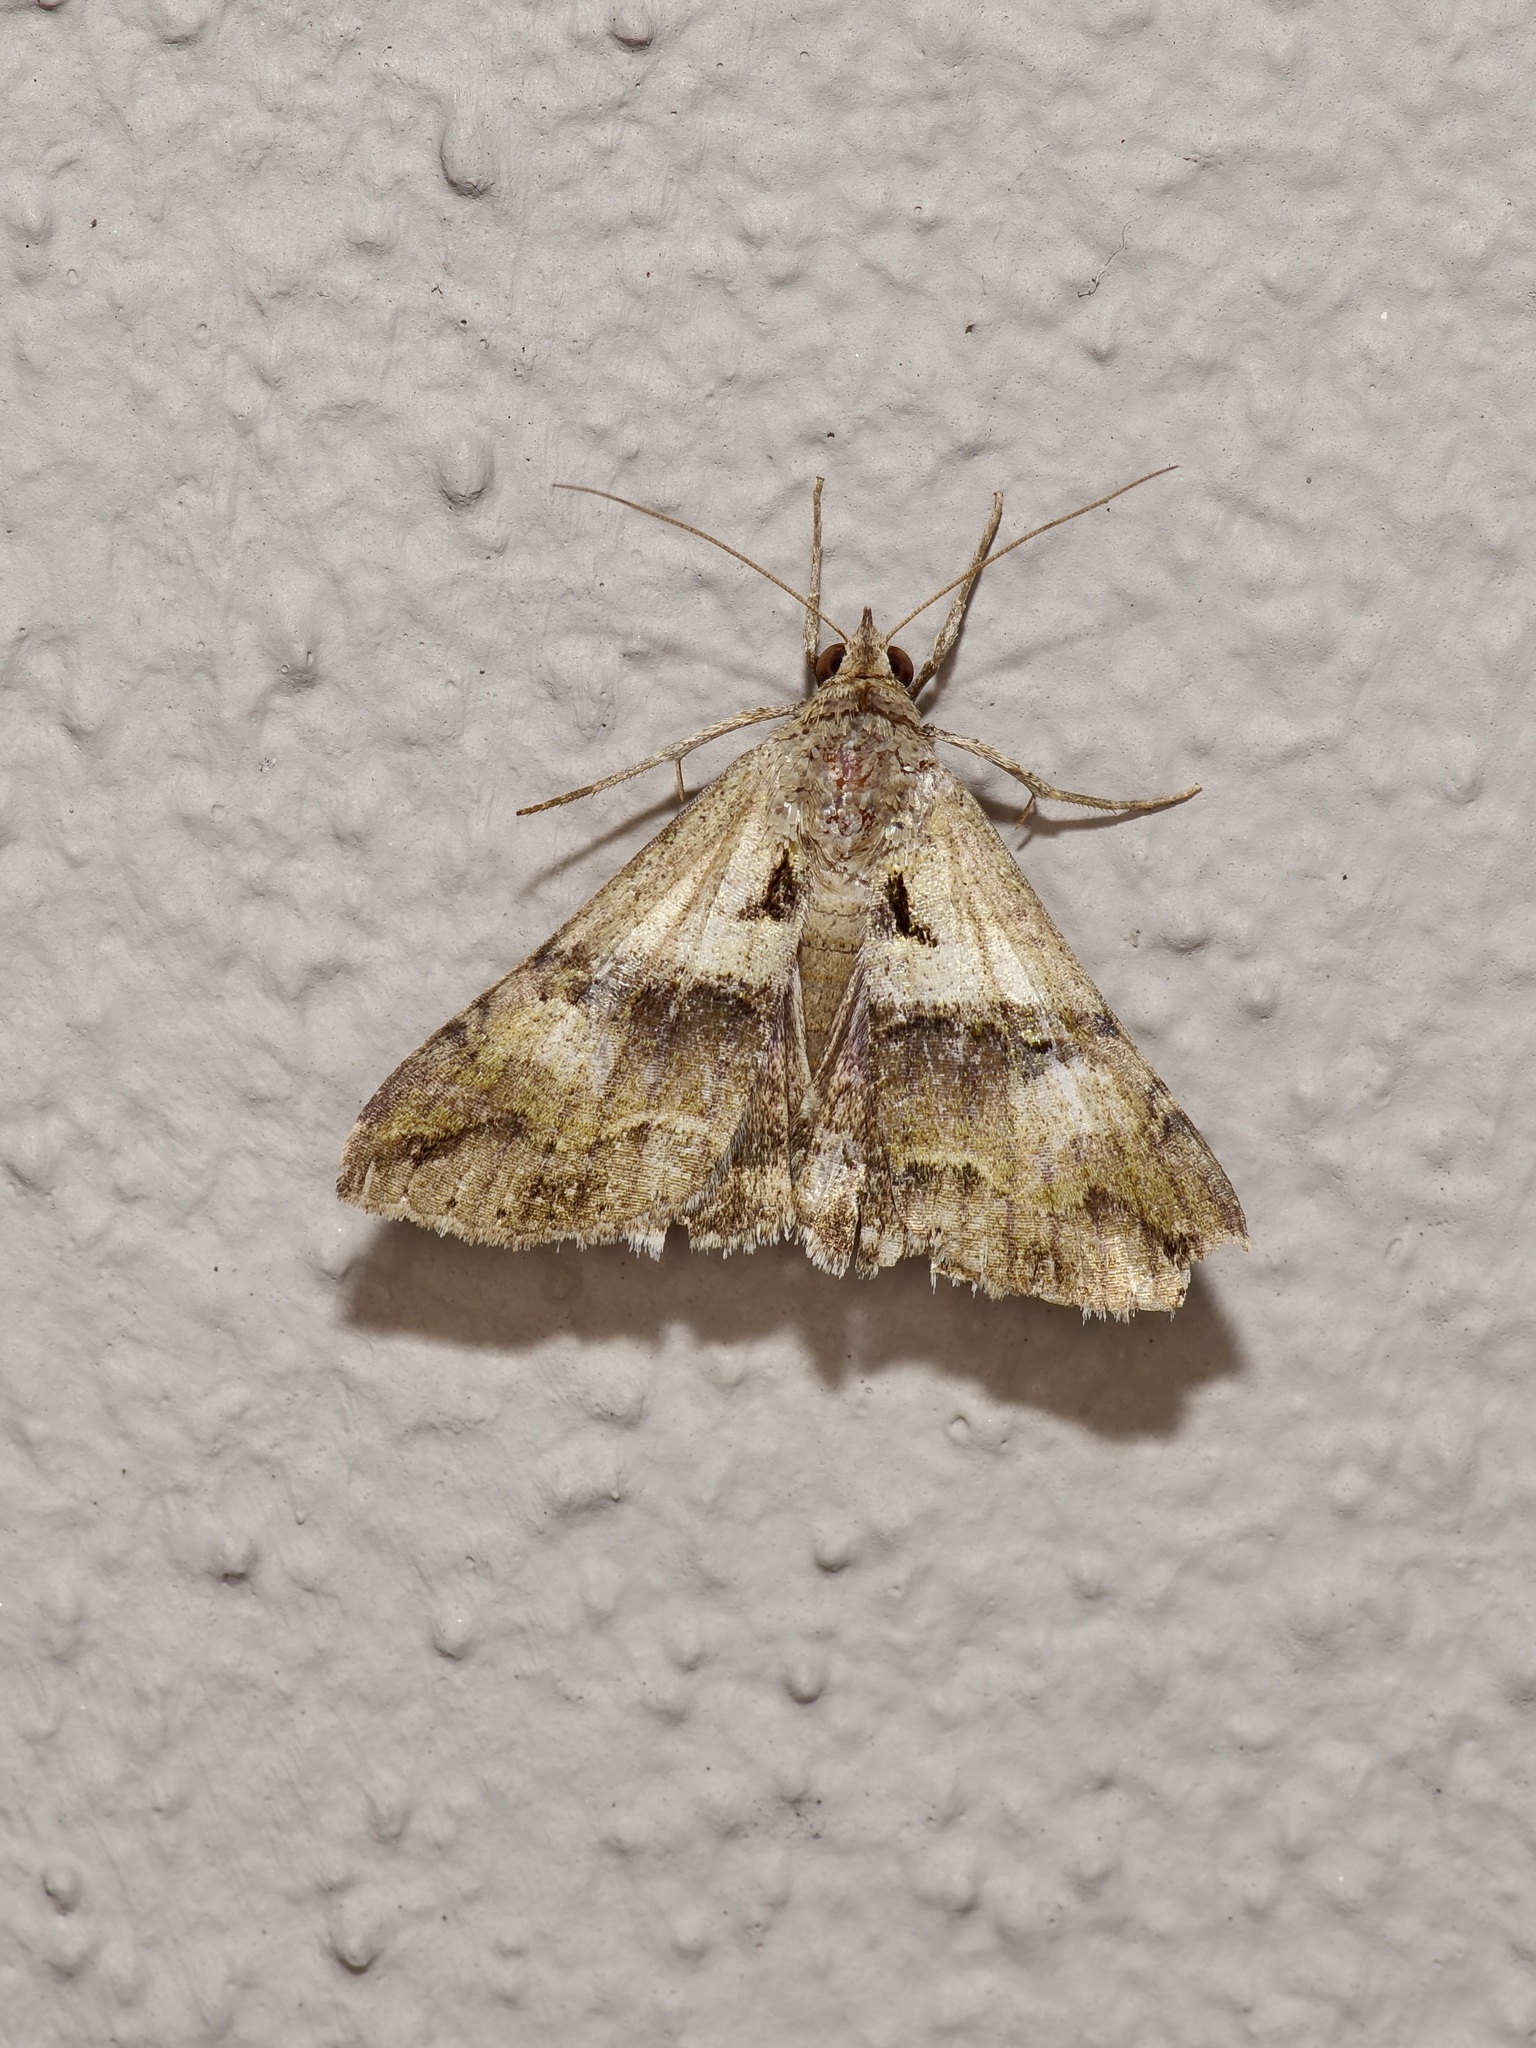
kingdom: Animalia
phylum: Arthropoda
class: Insecta
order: Lepidoptera
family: Erebidae
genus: Melipotis
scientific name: Melipotis cellaris
